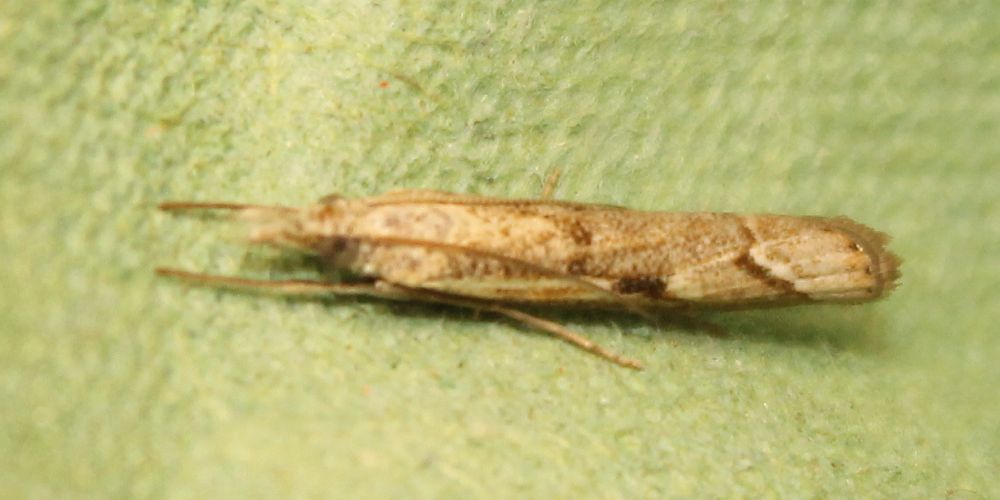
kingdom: Animalia
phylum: Arthropoda
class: Insecta
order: Lepidoptera
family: Crambidae
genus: Agriphila
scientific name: Agriphila geniculea
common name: Elbow-stripe grass-veneer
